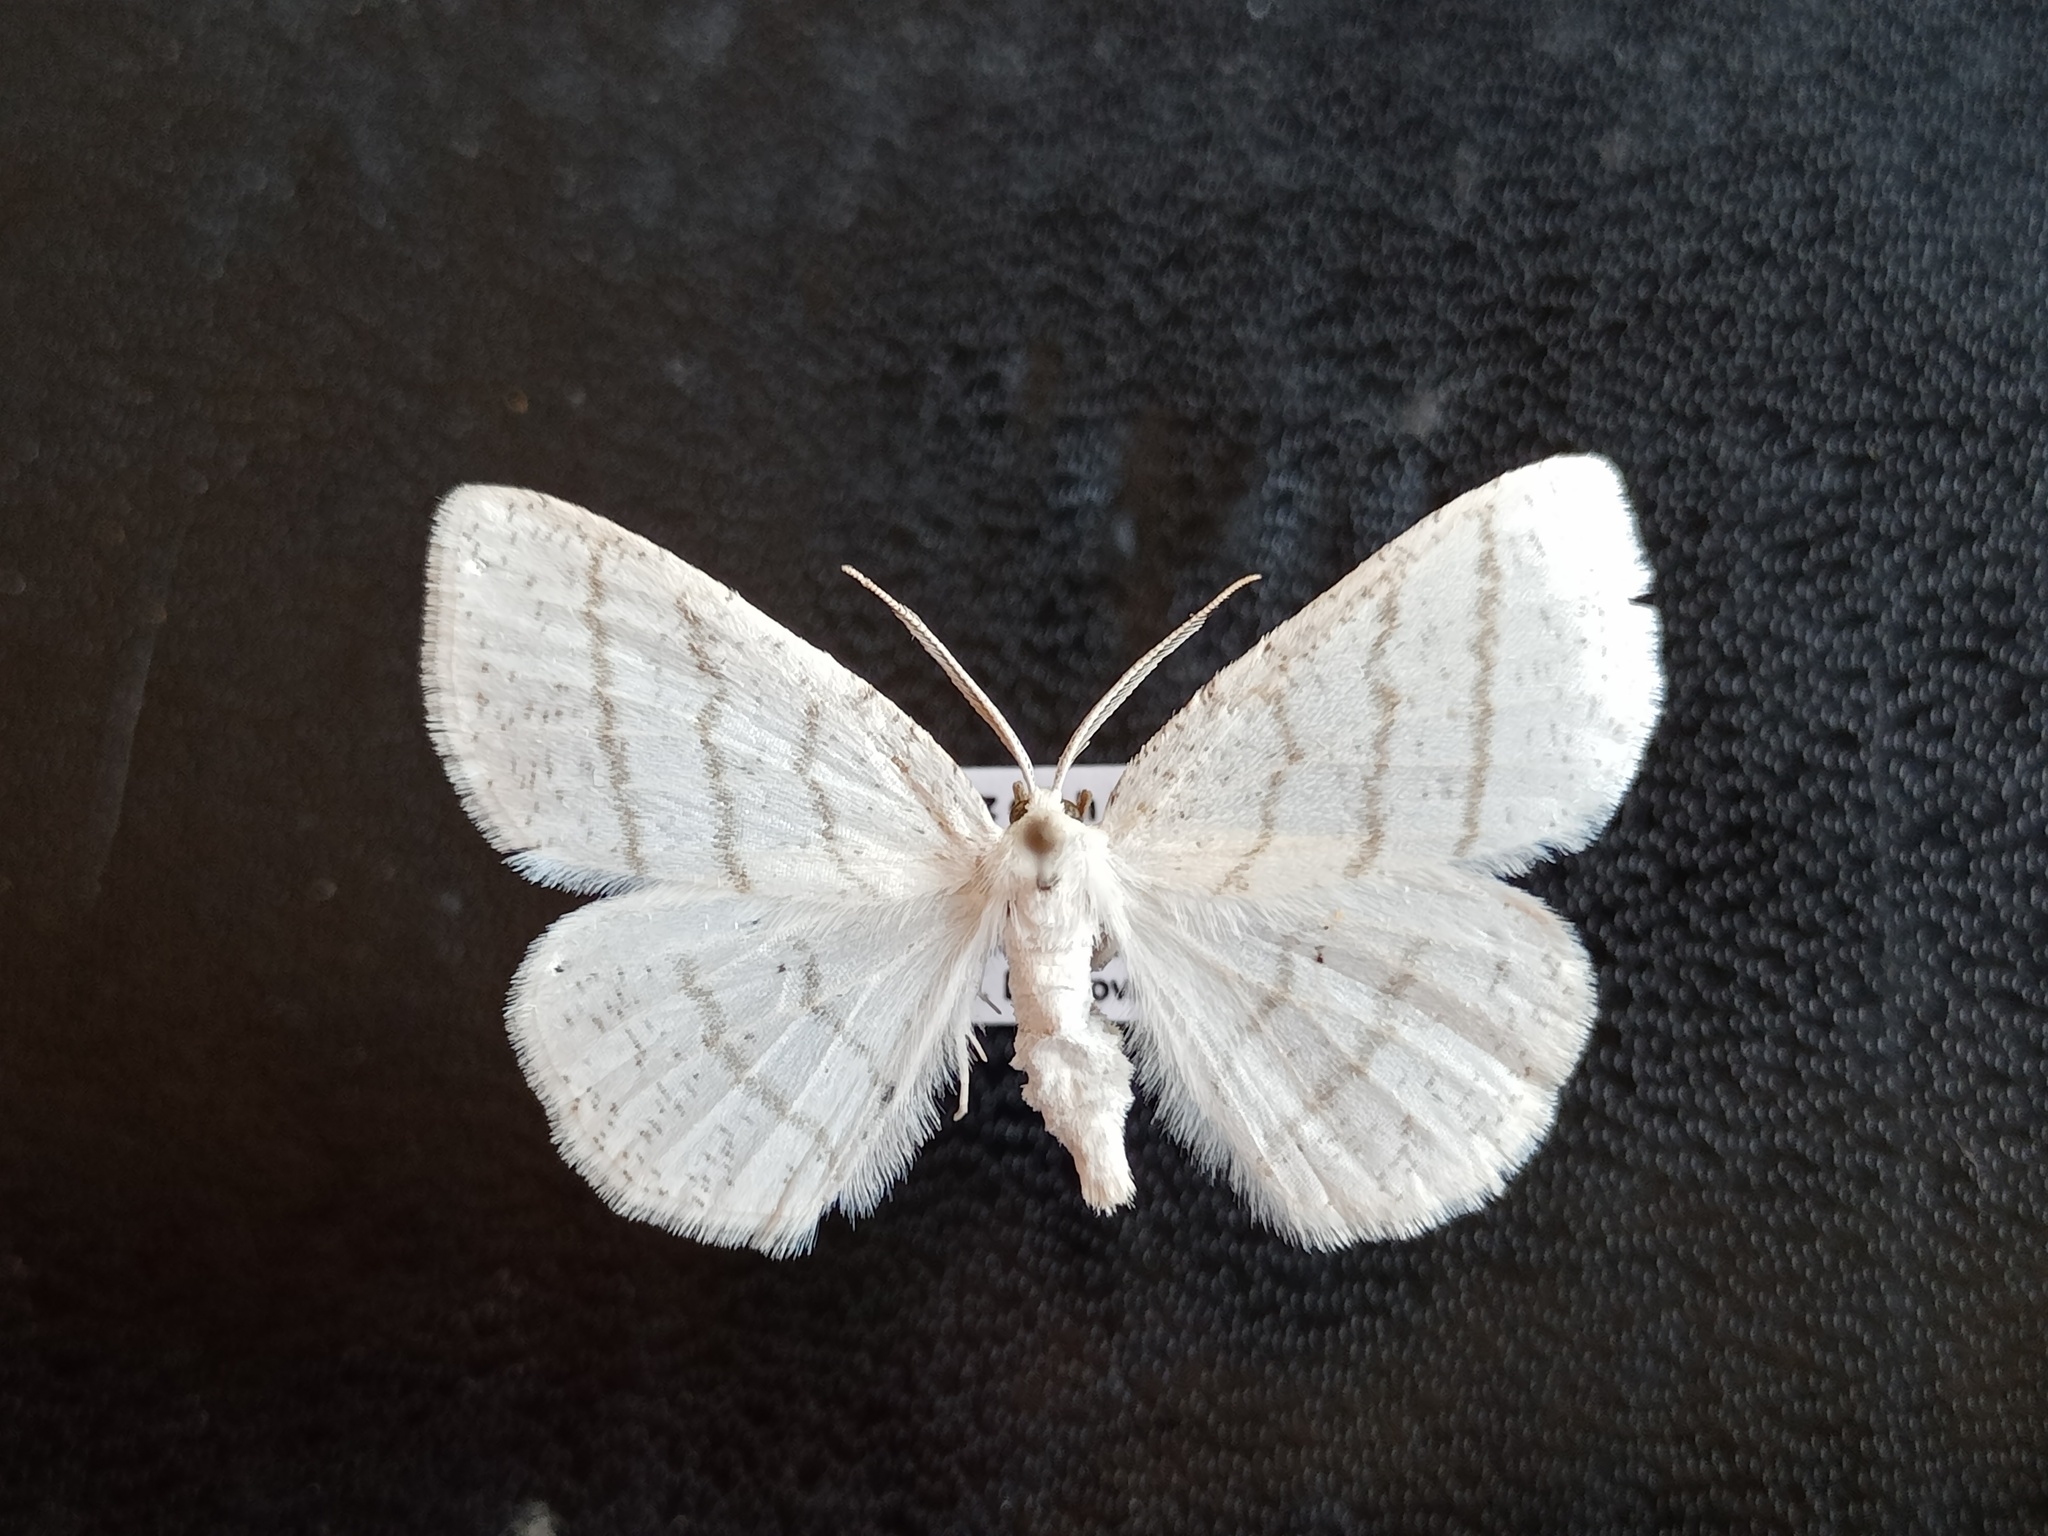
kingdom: Animalia
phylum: Arthropoda
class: Insecta
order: Lepidoptera
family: Geometridae
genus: Cabera
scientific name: Cabera pusaria
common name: Common white wave
